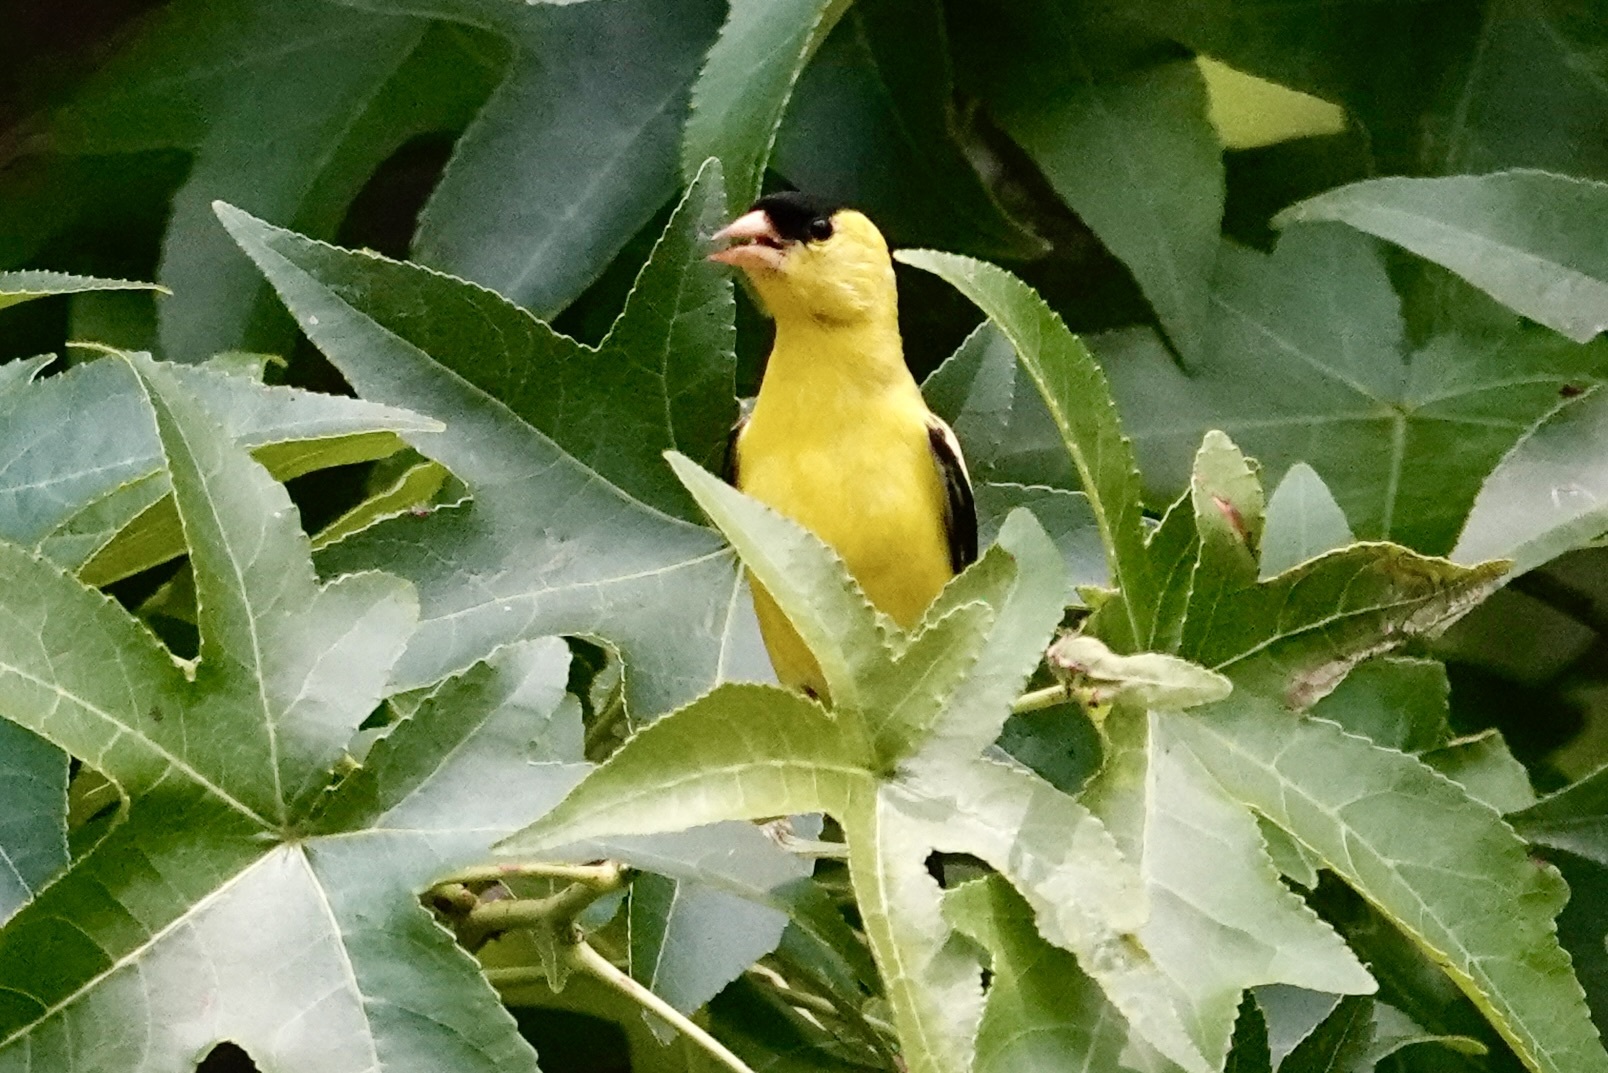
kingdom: Animalia
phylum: Chordata
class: Aves
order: Passeriformes
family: Fringillidae
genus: Spinus
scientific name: Spinus tristis
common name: American goldfinch
